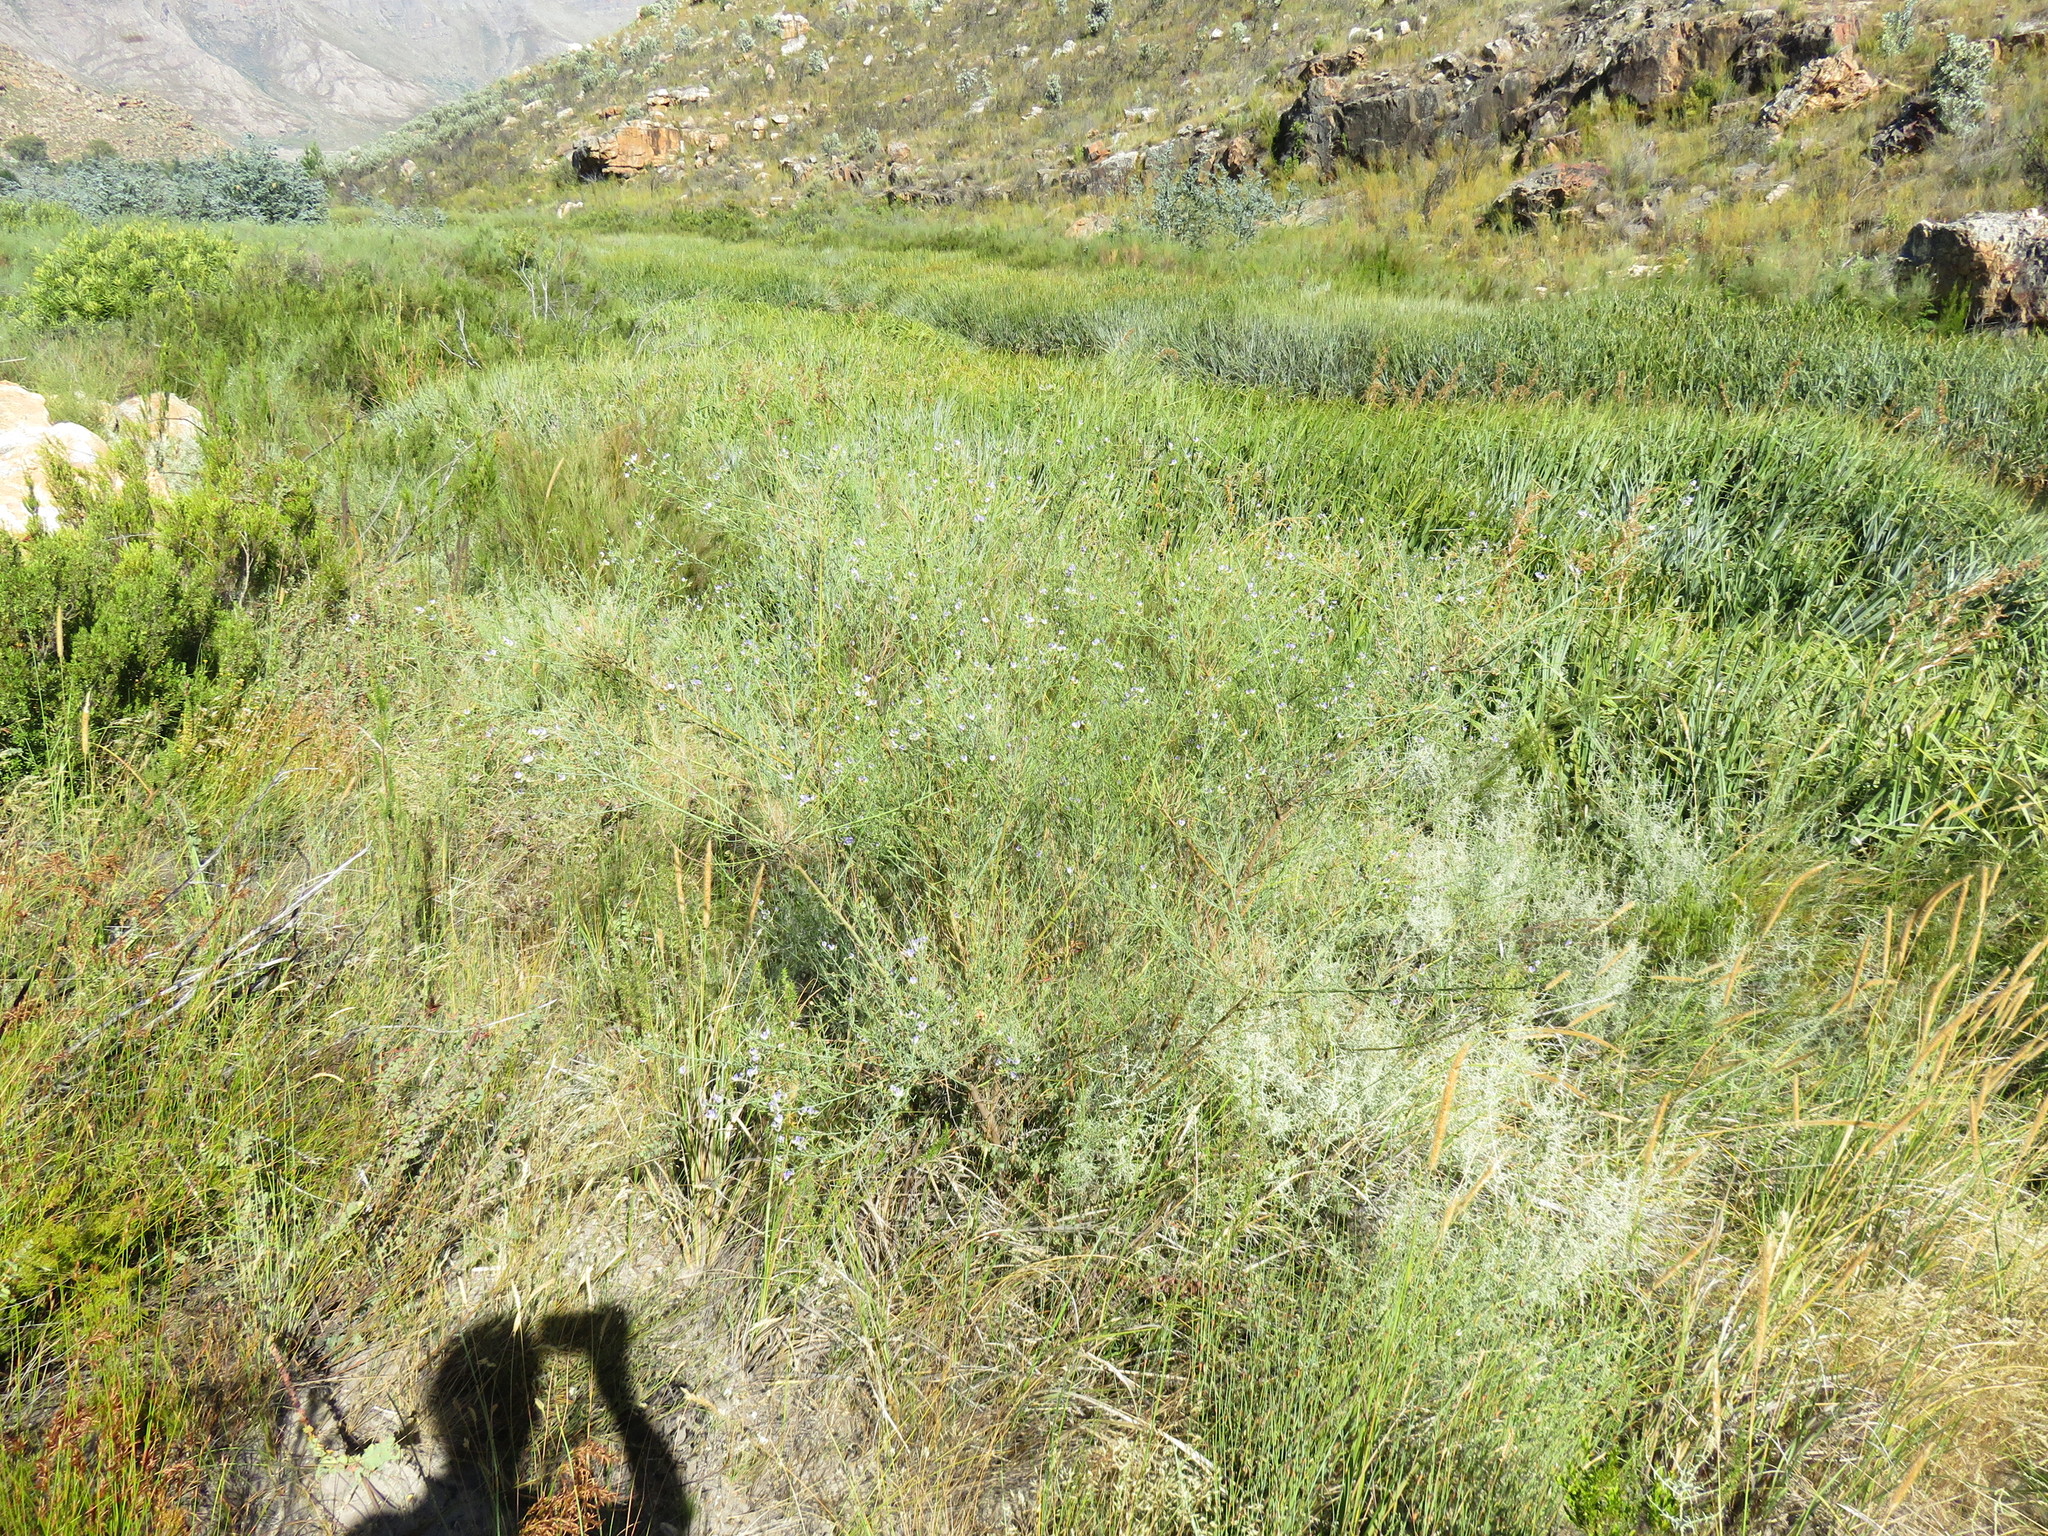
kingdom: Plantae
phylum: Tracheophyta
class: Magnoliopsida
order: Fabales
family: Fabaceae
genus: Psoralea
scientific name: Psoralea verrucosa
